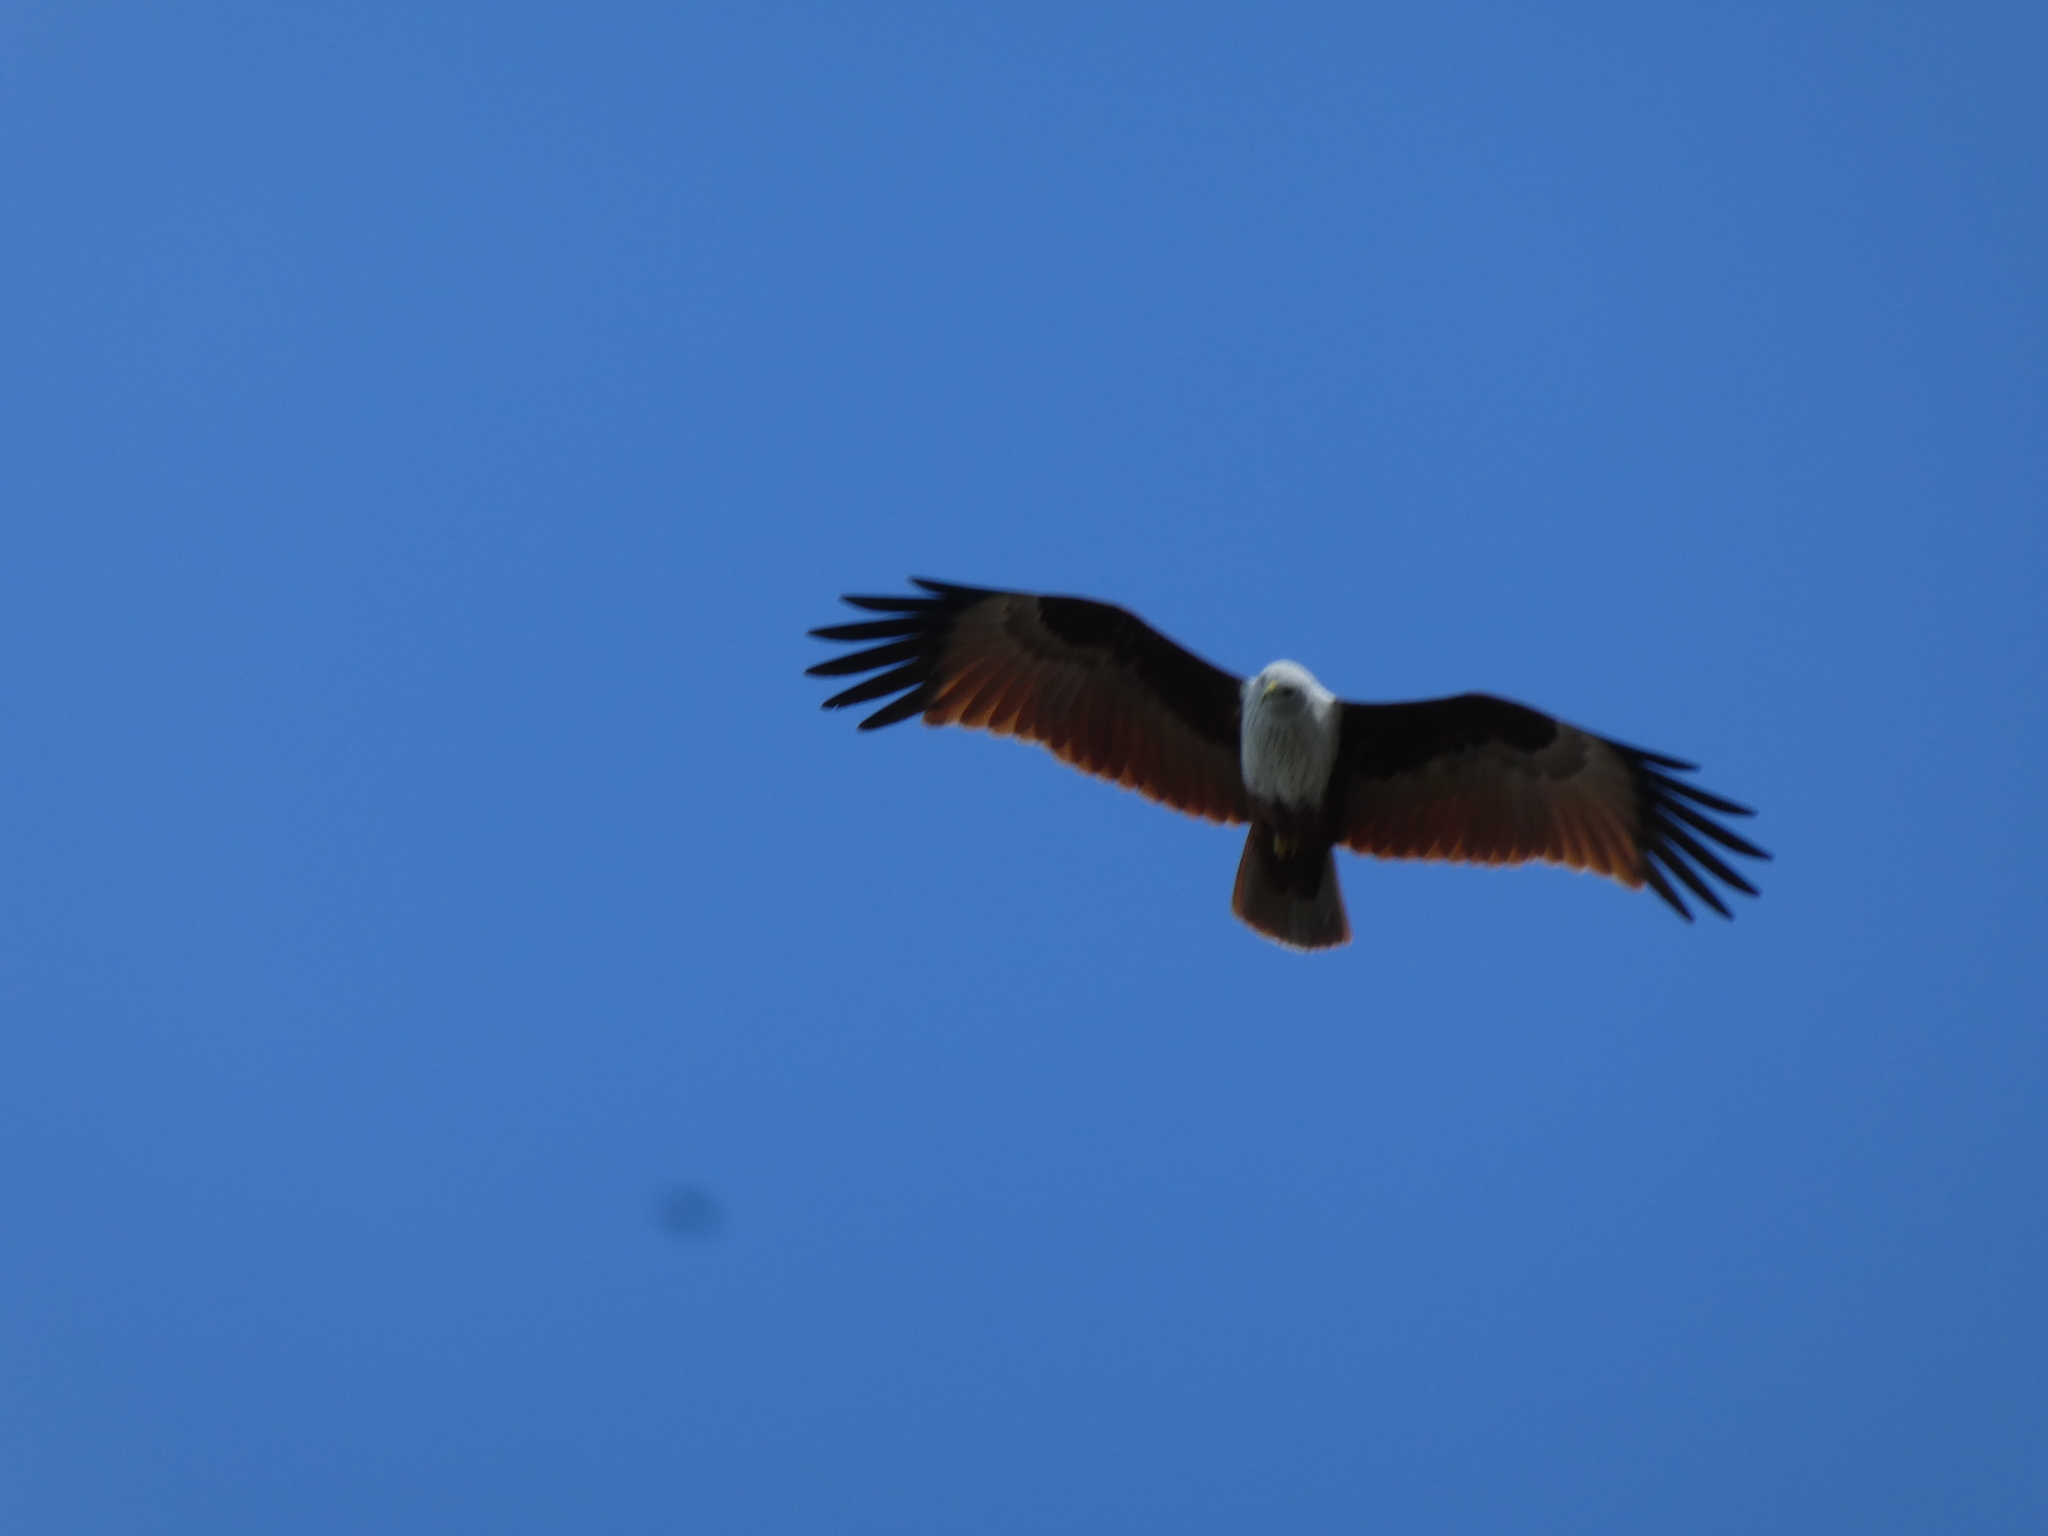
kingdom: Animalia
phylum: Chordata
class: Aves
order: Accipitriformes
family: Accipitridae
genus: Haliastur
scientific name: Haliastur indus
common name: Brahminy kite
